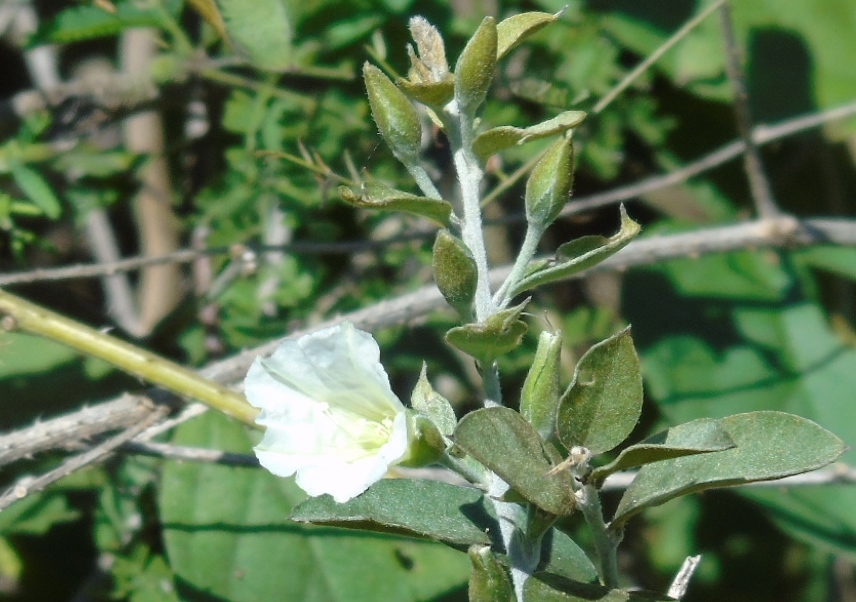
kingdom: Plantae
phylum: Tracheophyta
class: Magnoliopsida
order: Solanales
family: Convolvulaceae
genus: Bonamia
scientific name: Bonamia sulphurea
